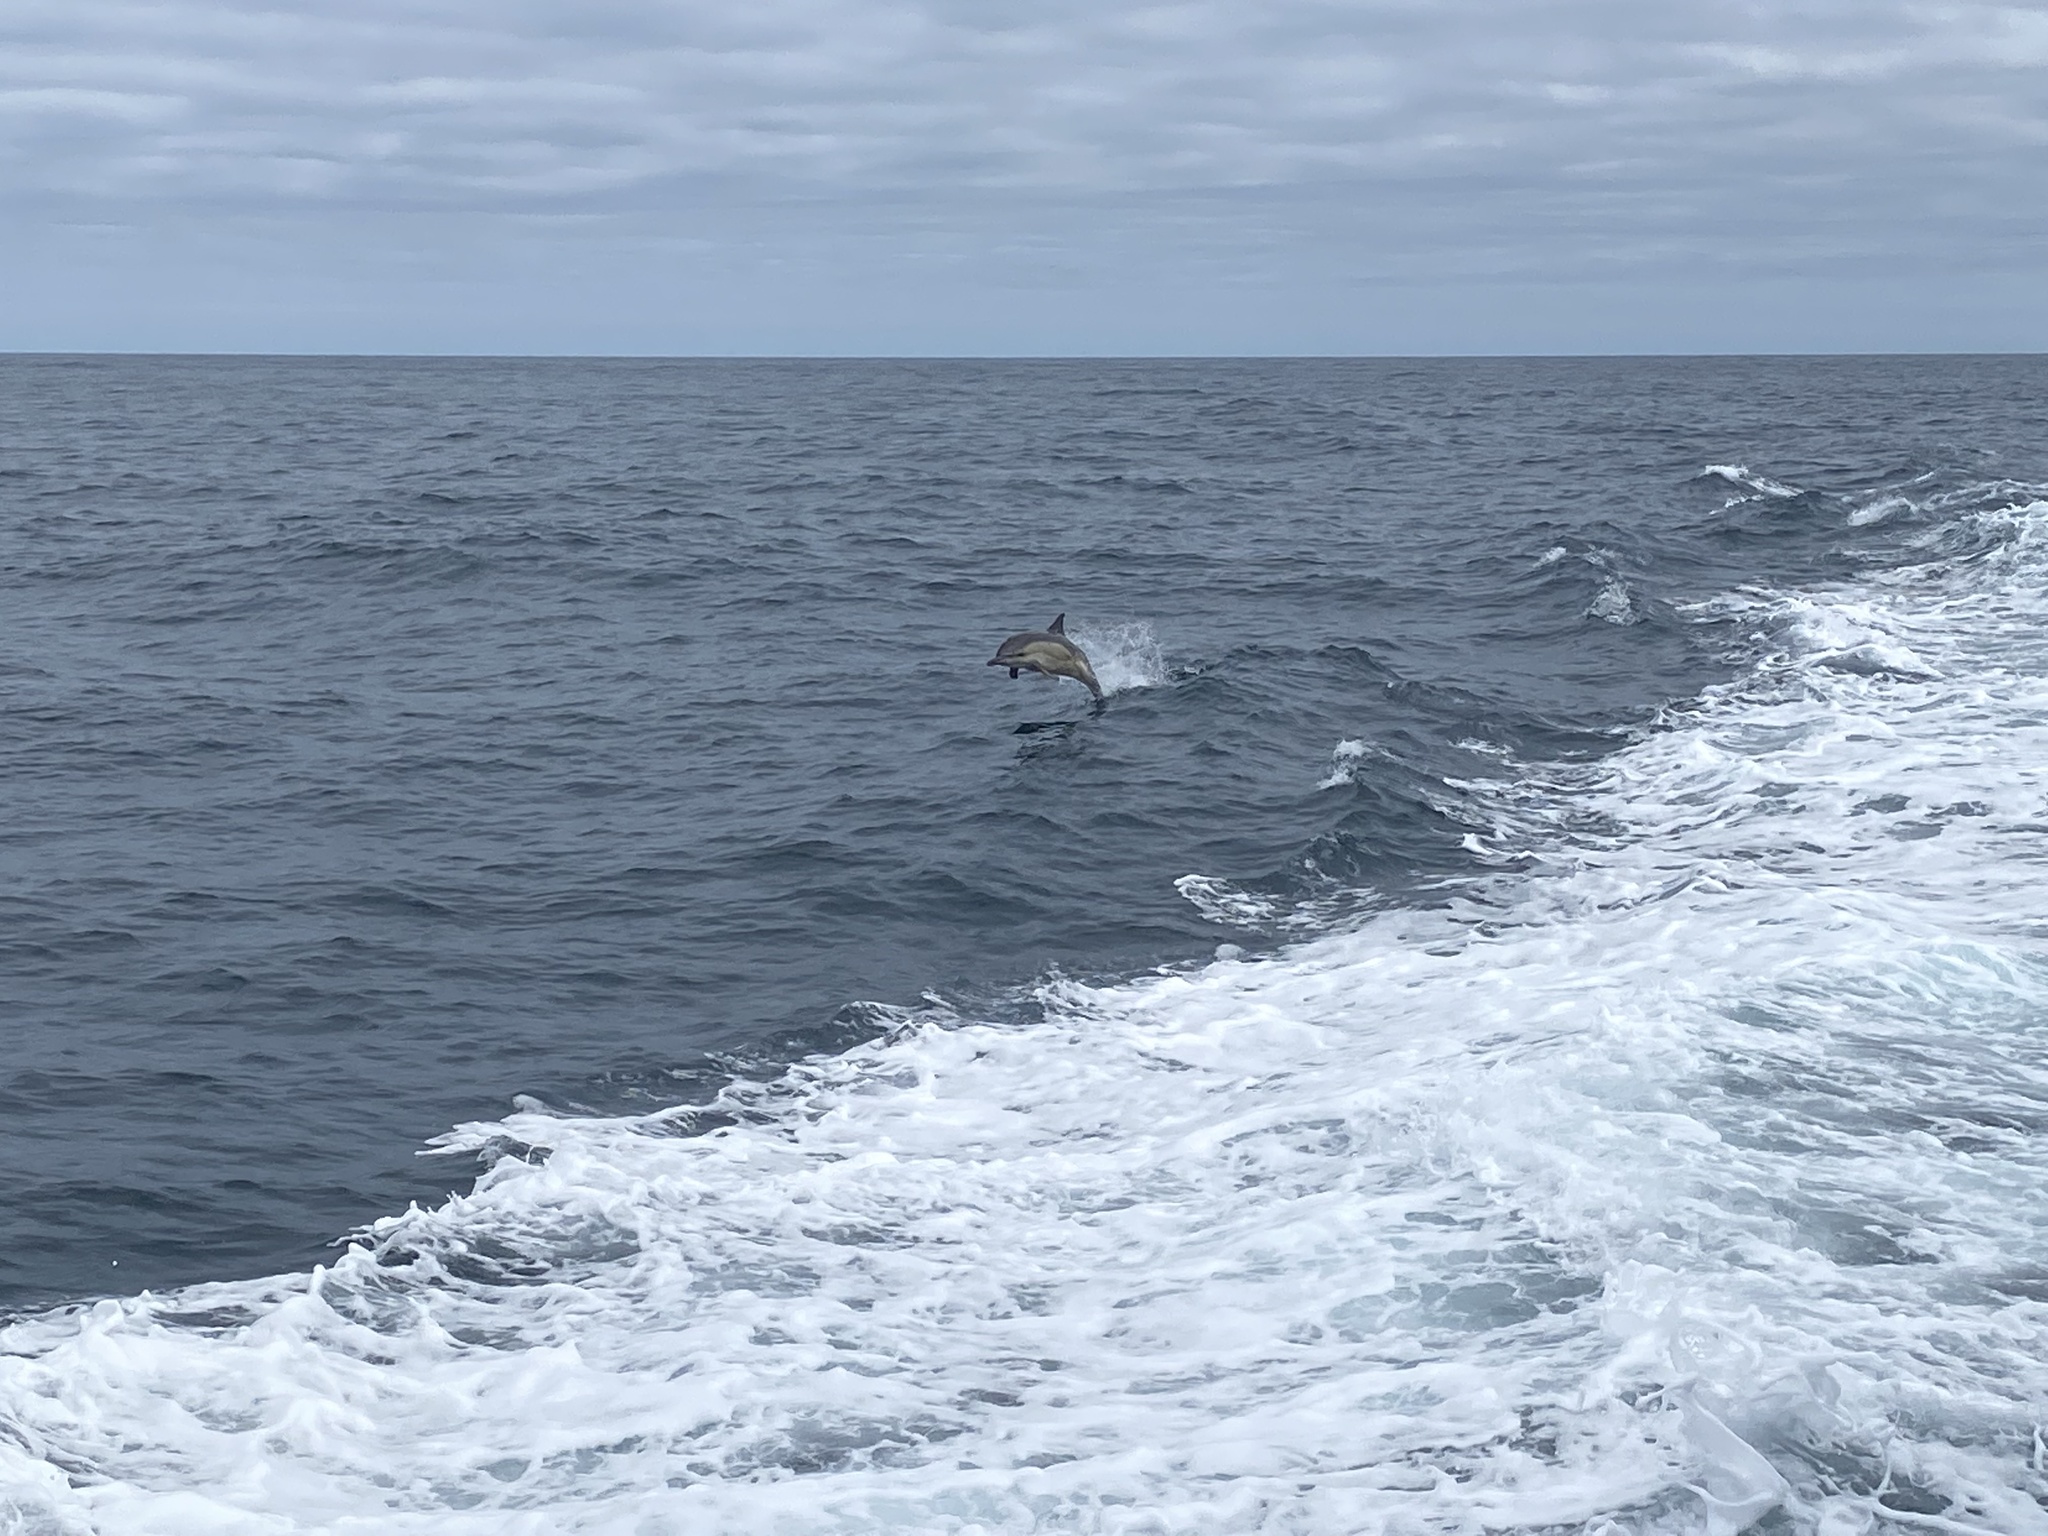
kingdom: Animalia
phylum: Chordata
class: Mammalia
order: Cetacea
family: Delphinidae
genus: Delphinus
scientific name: Delphinus delphis
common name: Common dolphin
